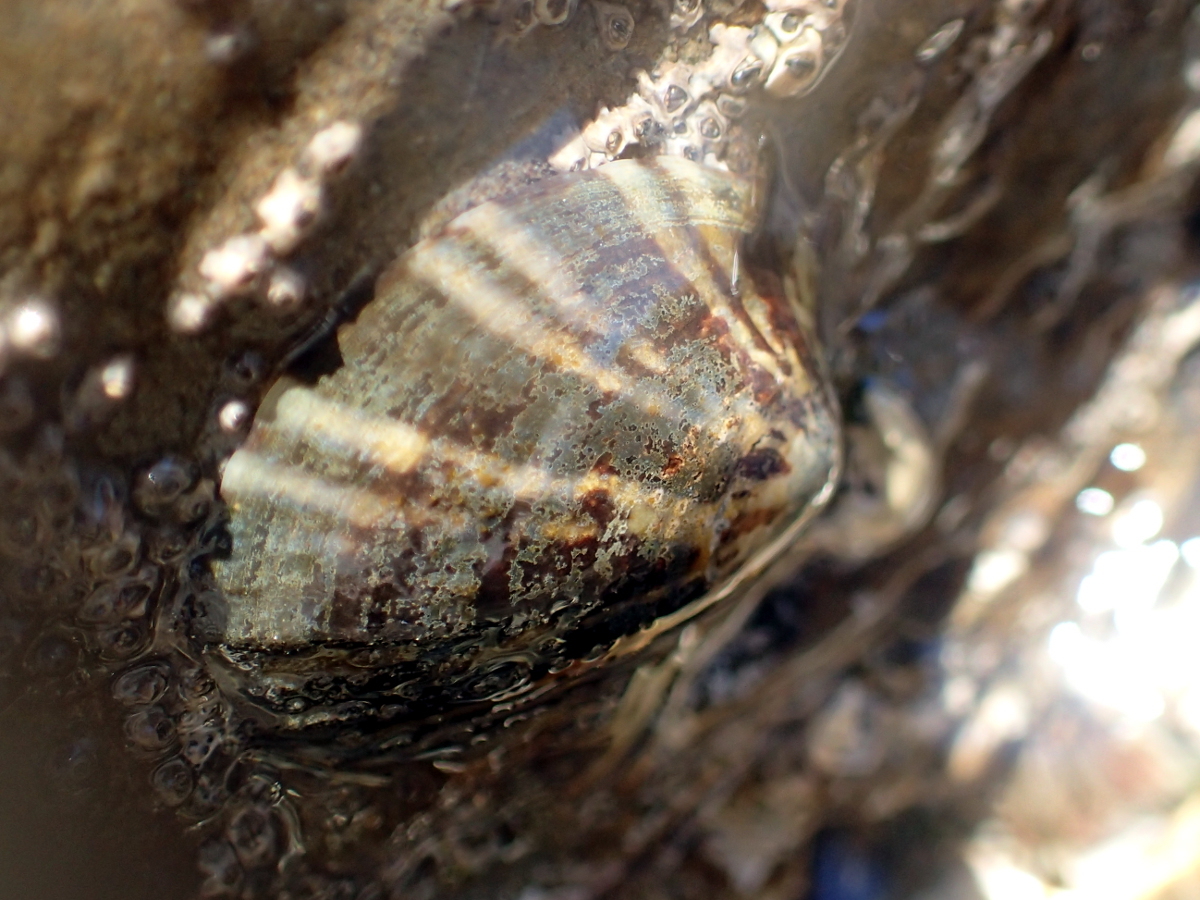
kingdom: Animalia
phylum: Mollusca
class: Gastropoda
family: Lottiidae
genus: Notoacmea
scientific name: Notoacmea parviconoidea
